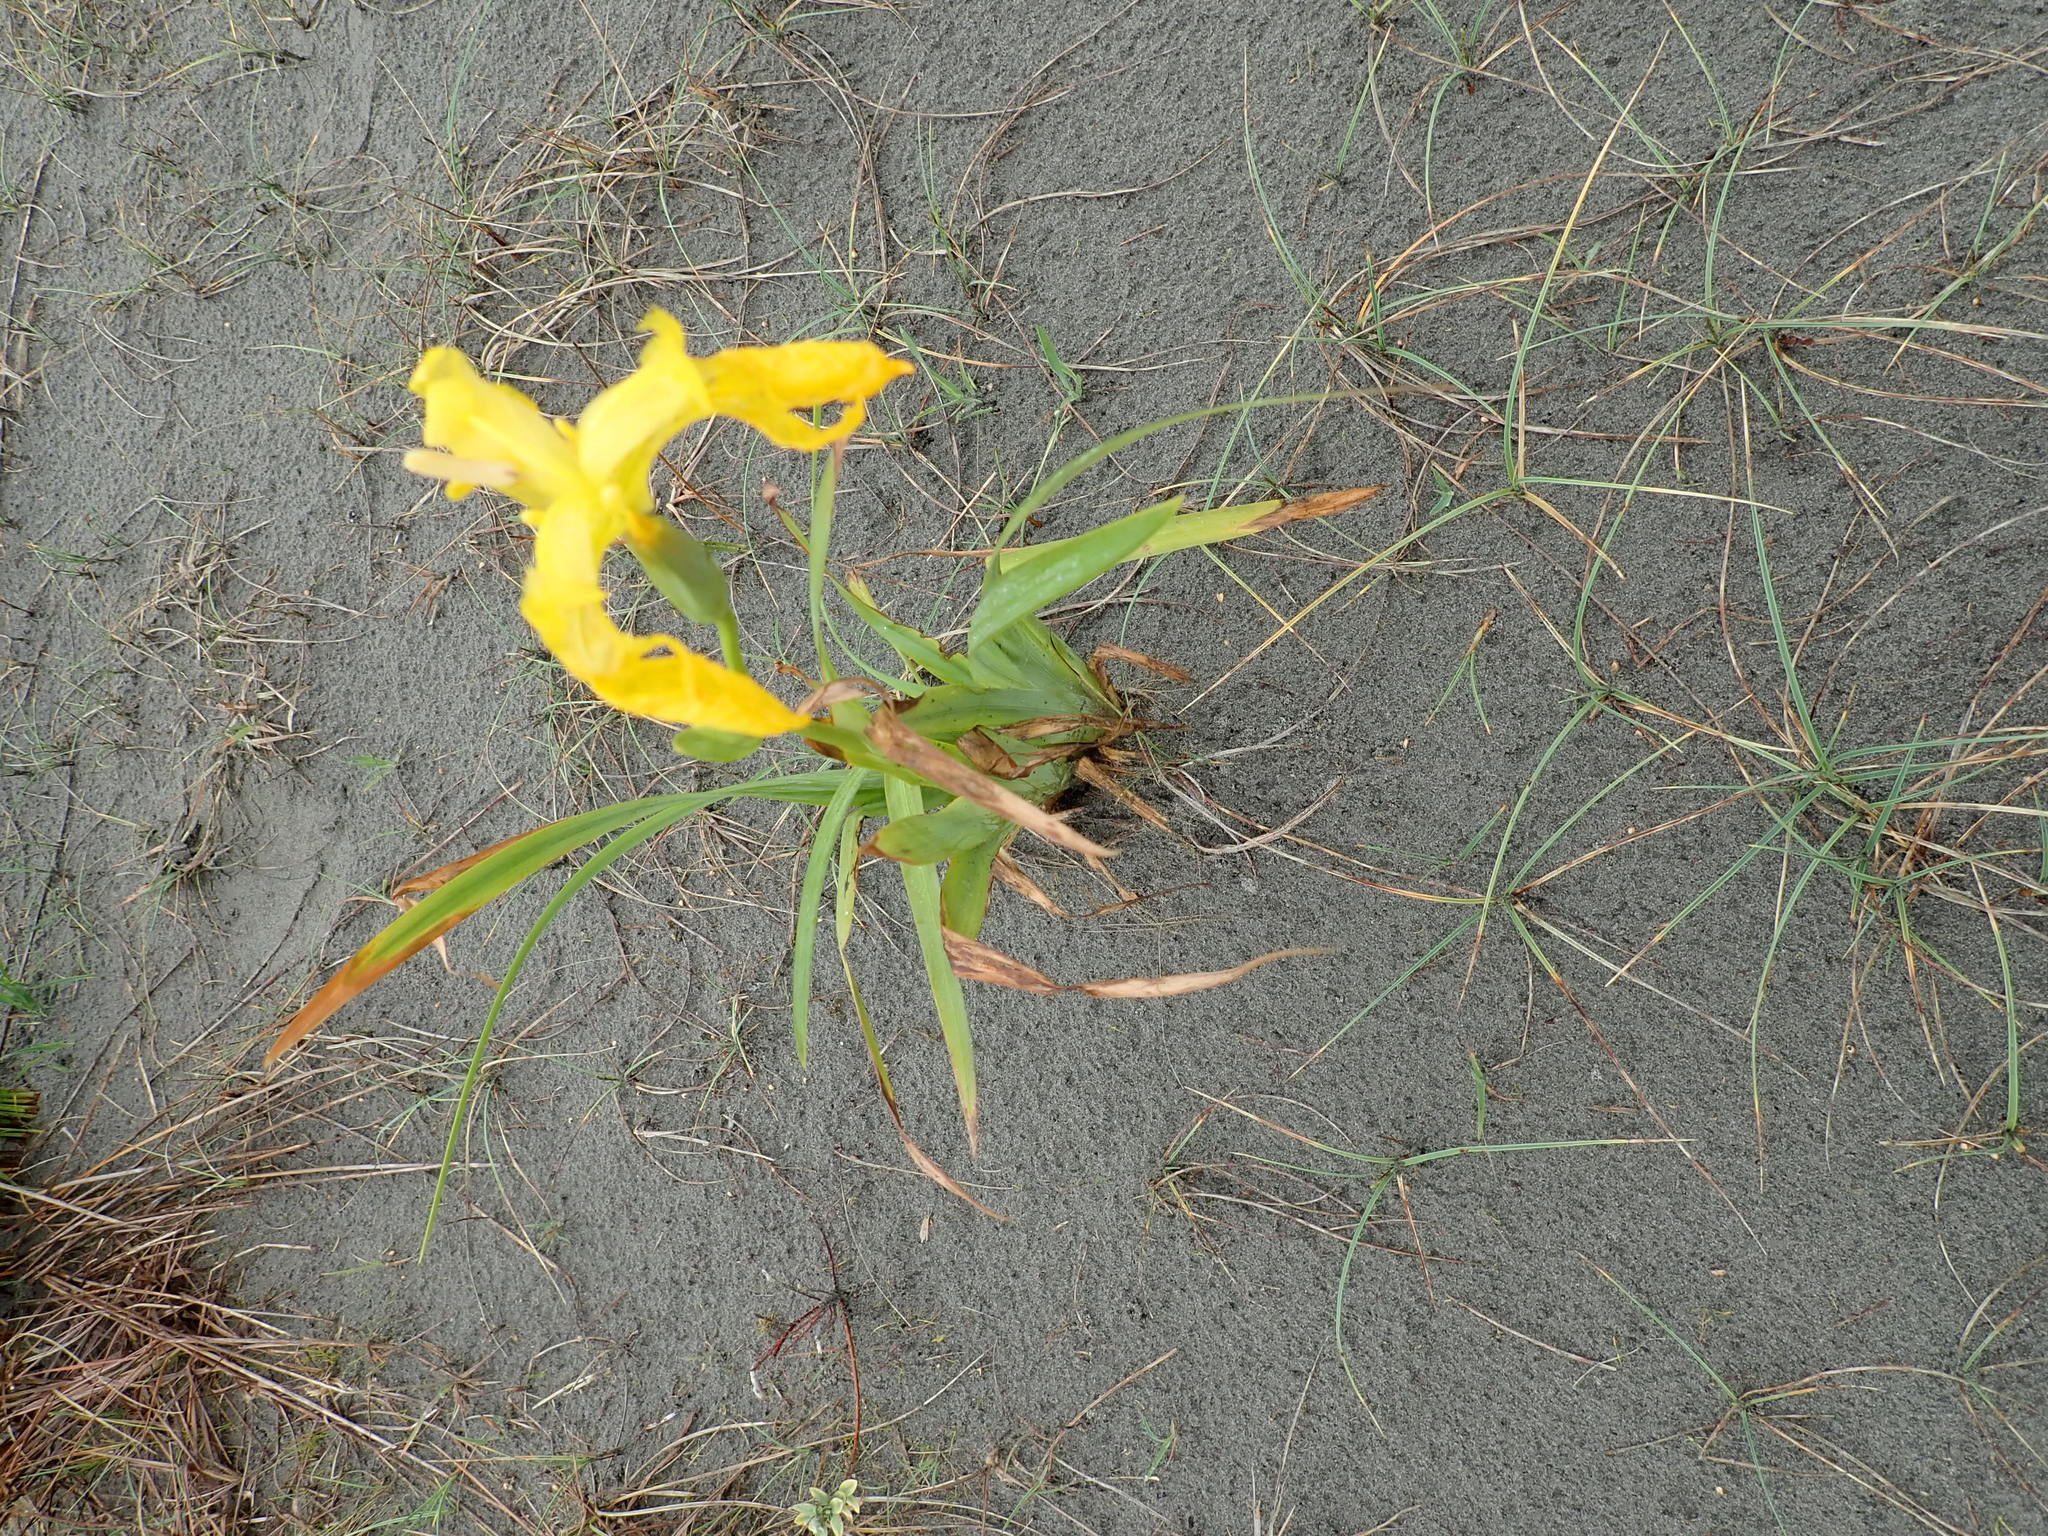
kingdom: Plantae
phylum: Tracheophyta
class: Liliopsida
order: Asparagales
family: Iridaceae
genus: Iris
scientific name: Iris pseudacorus
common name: Yellow flag
